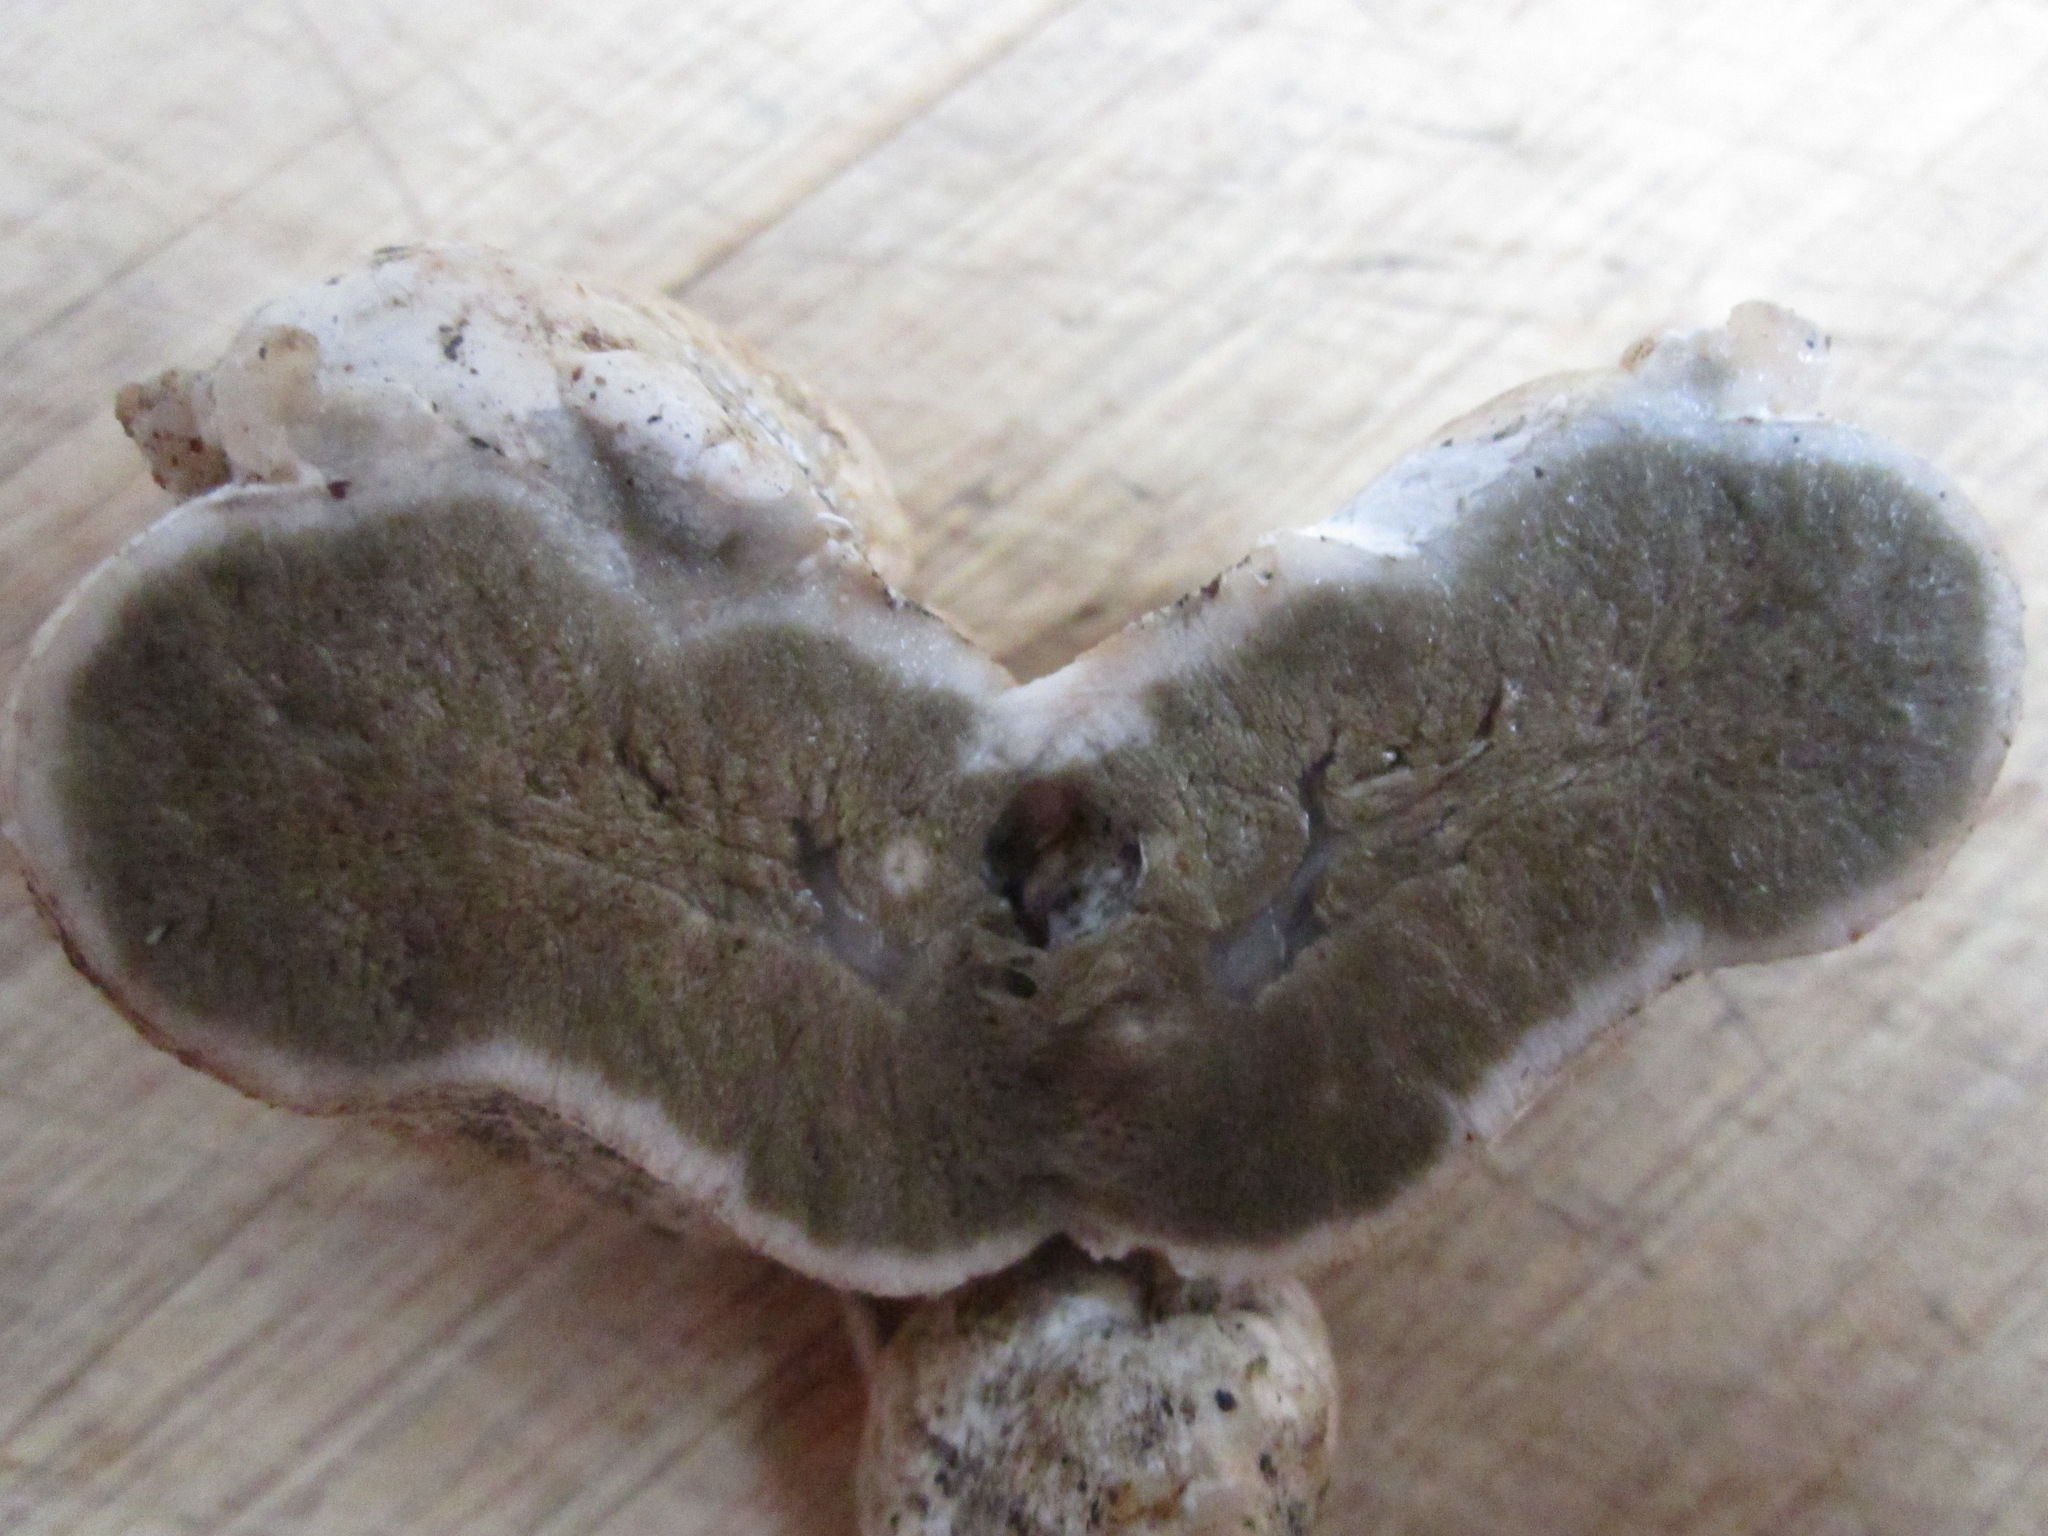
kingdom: Fungi
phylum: Basidiomycota
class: Agaricomycetes
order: Hysterangiales
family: Trappeaceae
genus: Trappea
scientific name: Trappea darkeri
